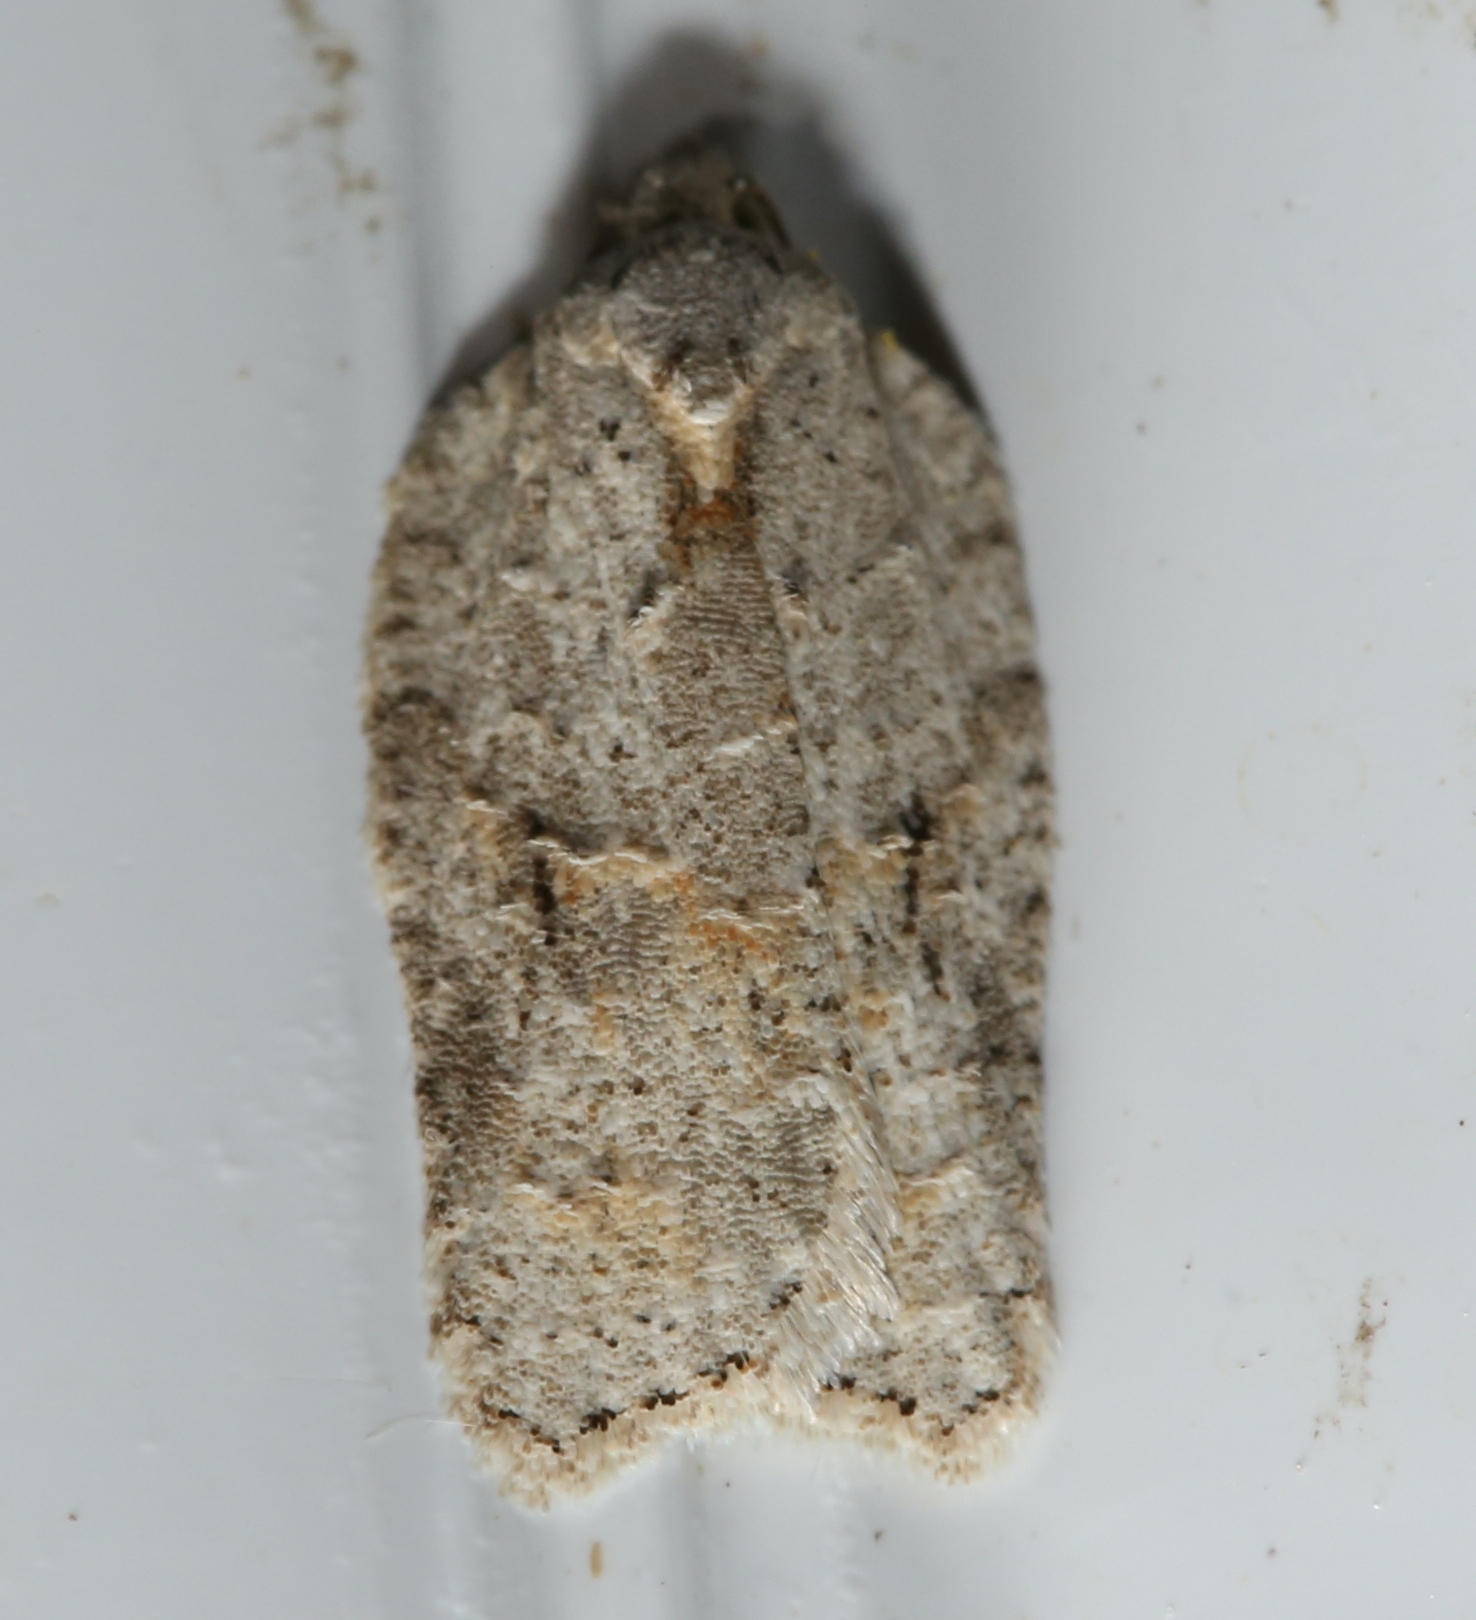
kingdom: Animalia
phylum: Arthropoda
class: Insecta
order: Lepidoptera
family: Tortricidae
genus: Acleris
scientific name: Acleris placidana
